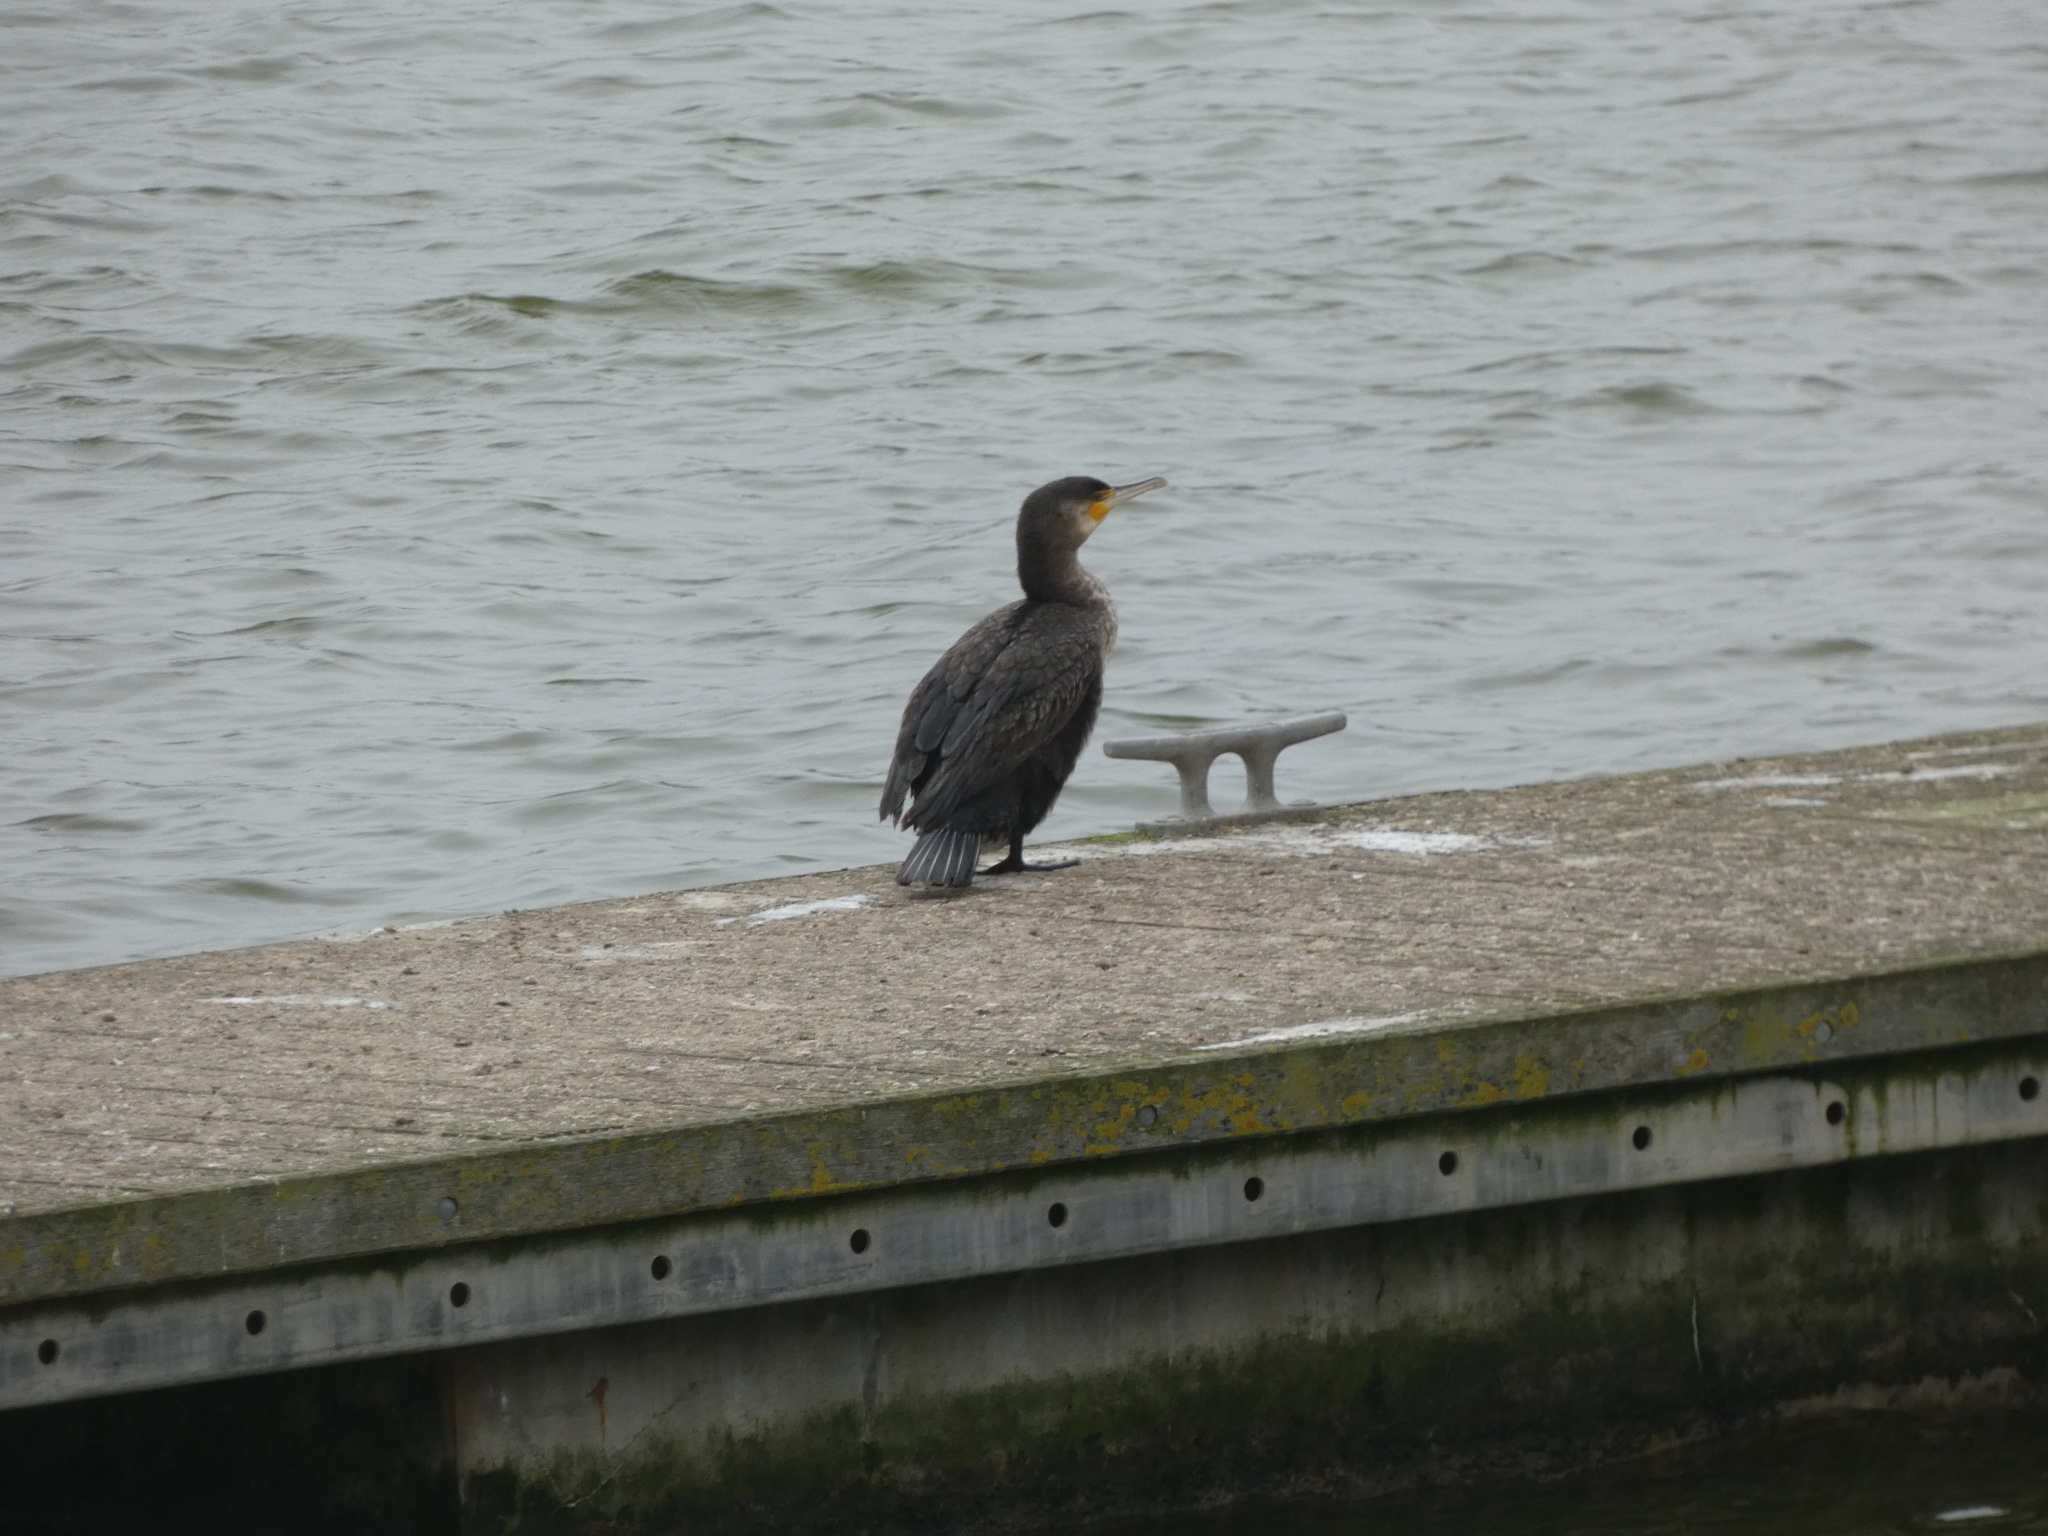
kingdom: Animalia
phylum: Chordata
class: Aves
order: Suliformes
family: Phalacrocoracidae
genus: Phalacrocorax
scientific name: Phalacrocorax carbo
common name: Great cormorant
